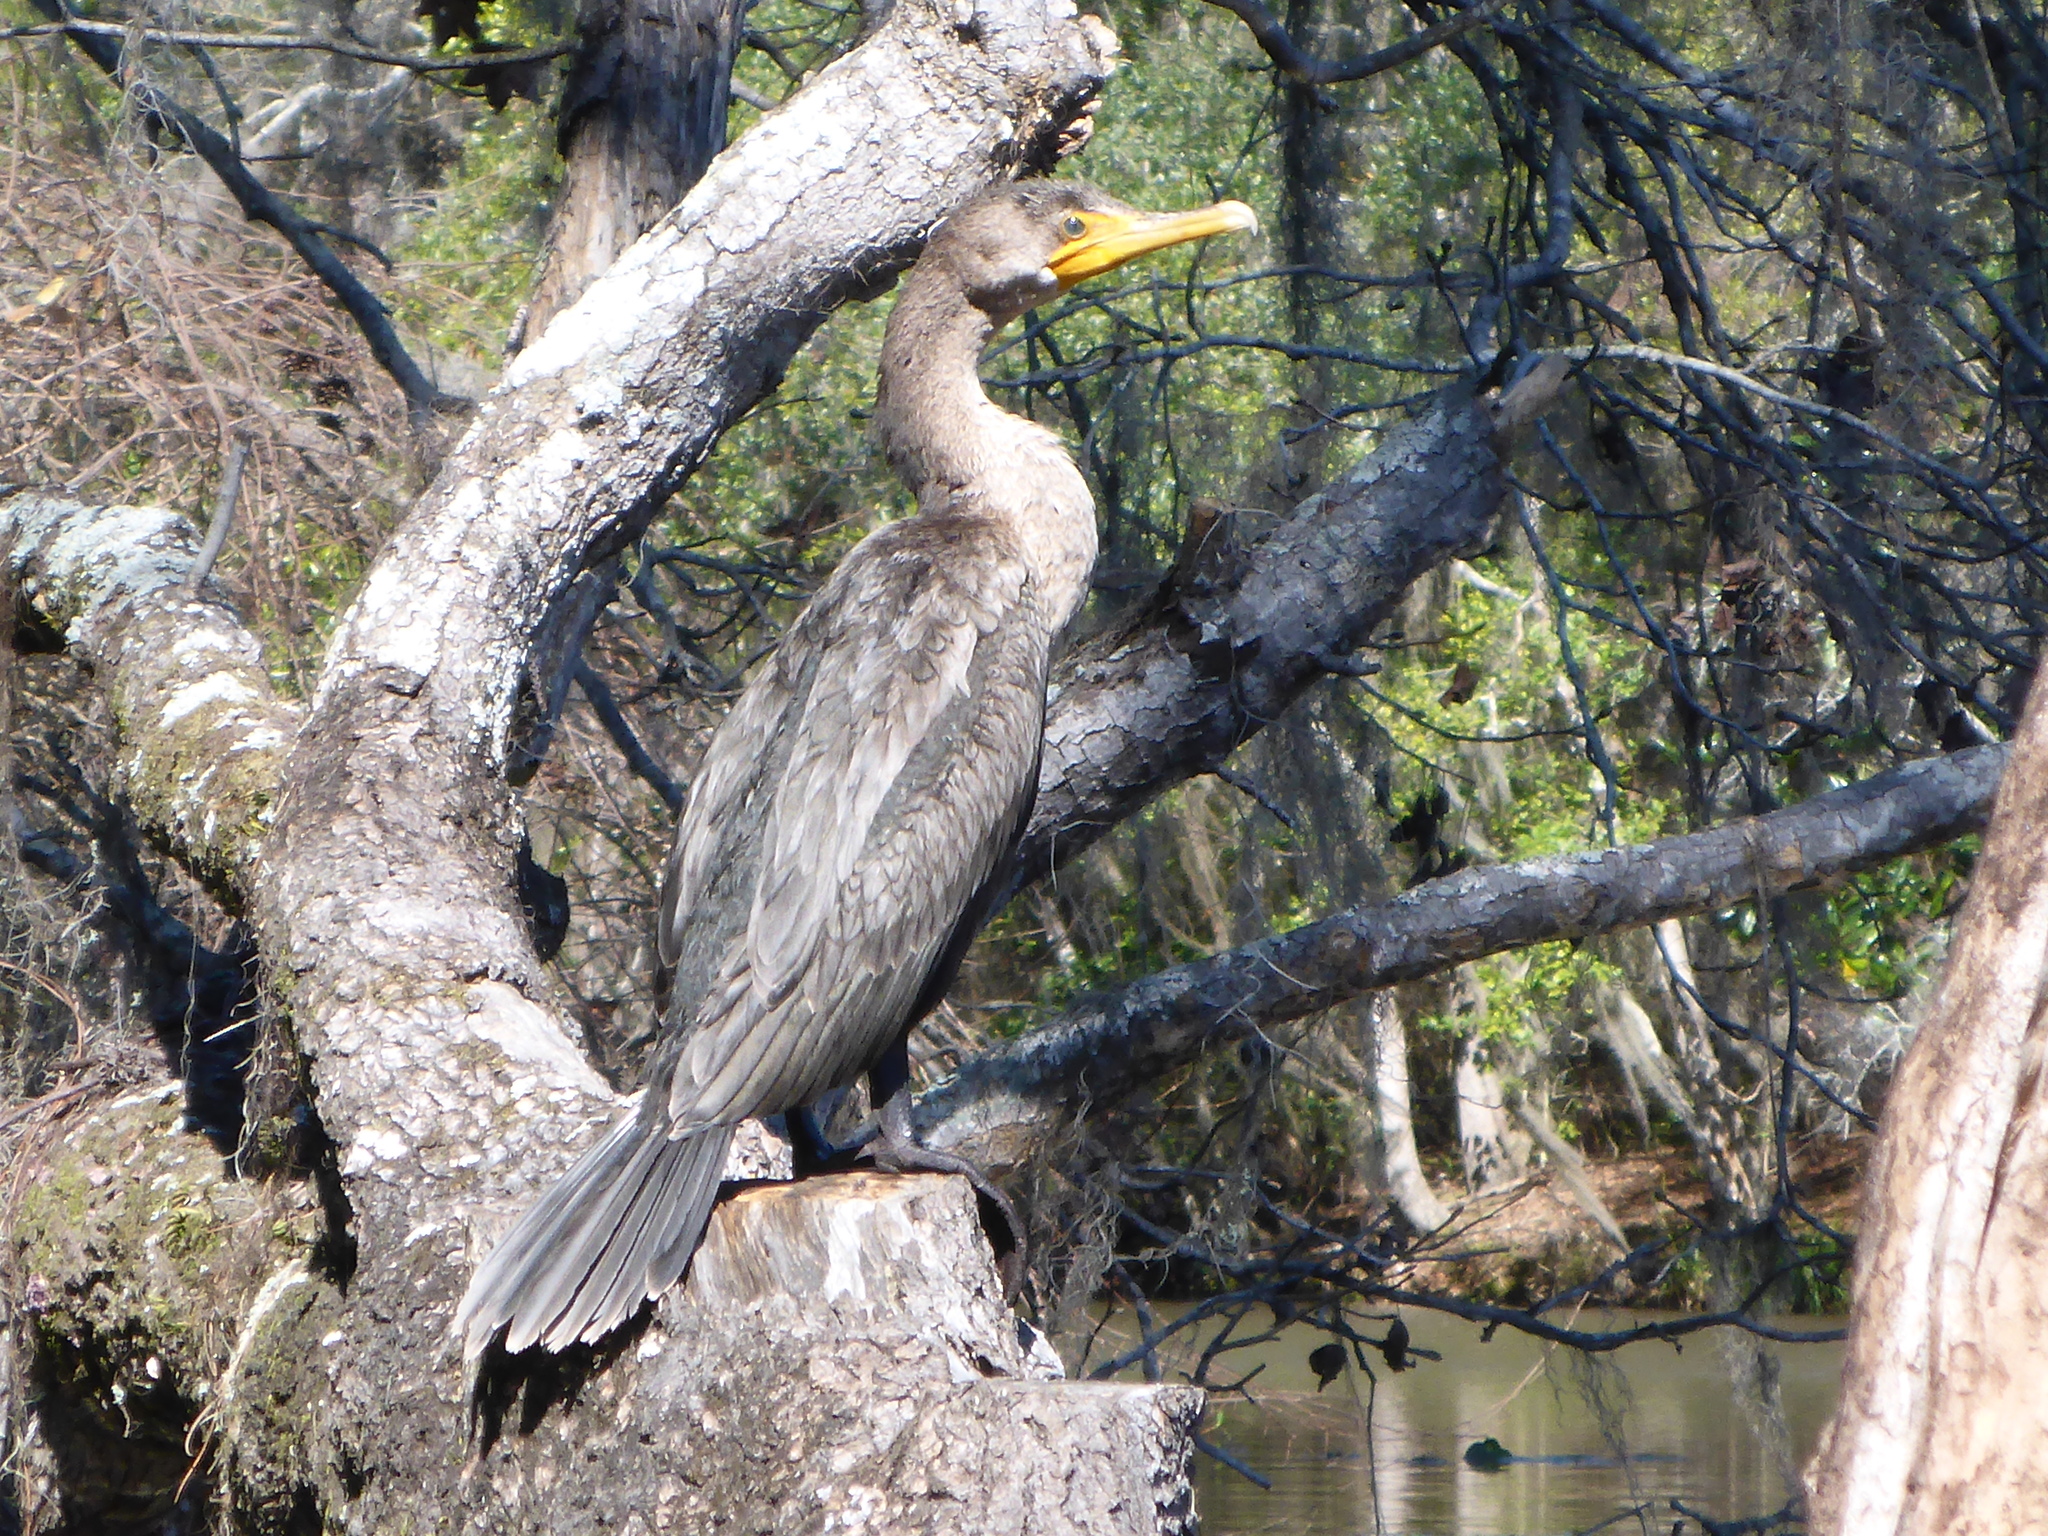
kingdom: Animalia
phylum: Chordata
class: Aves
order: Suliformes
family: Phalacrocoracidae
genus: Phalacrocorax
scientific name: Phalacrocorax auritus
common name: Double-crested cormorant
